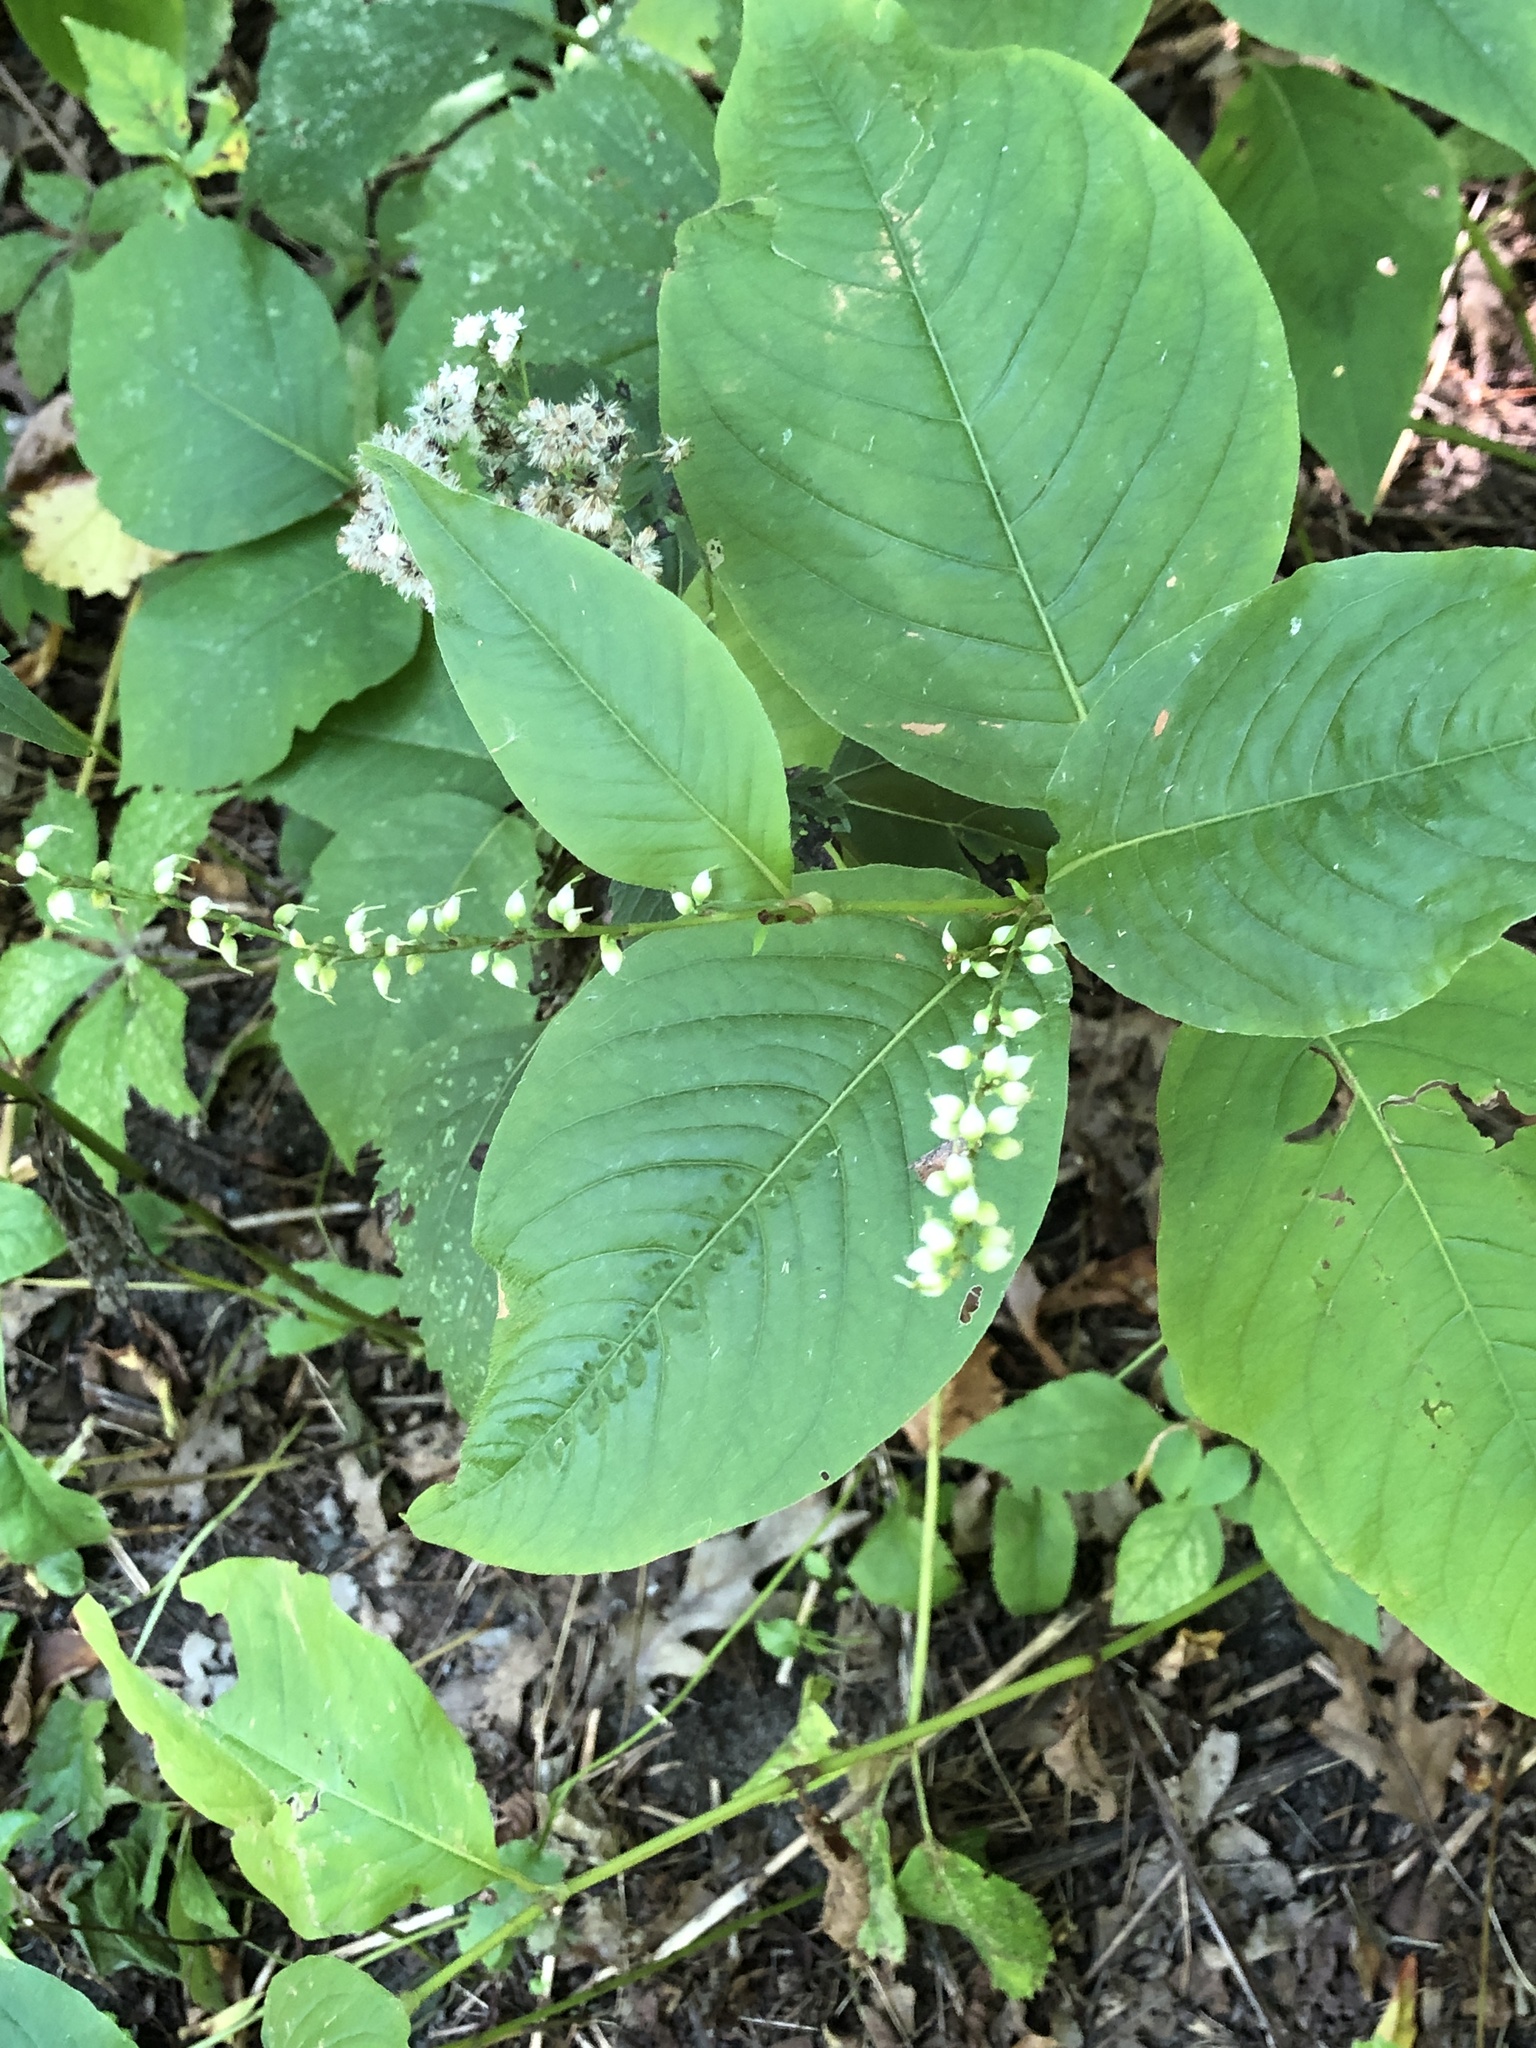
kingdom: Plantae
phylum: Tracheophyta
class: Magnoliopsida
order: Caryophyllales
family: Polygonaceae
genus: Persicaria
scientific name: Persicaria virginiana
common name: Jumpseed
